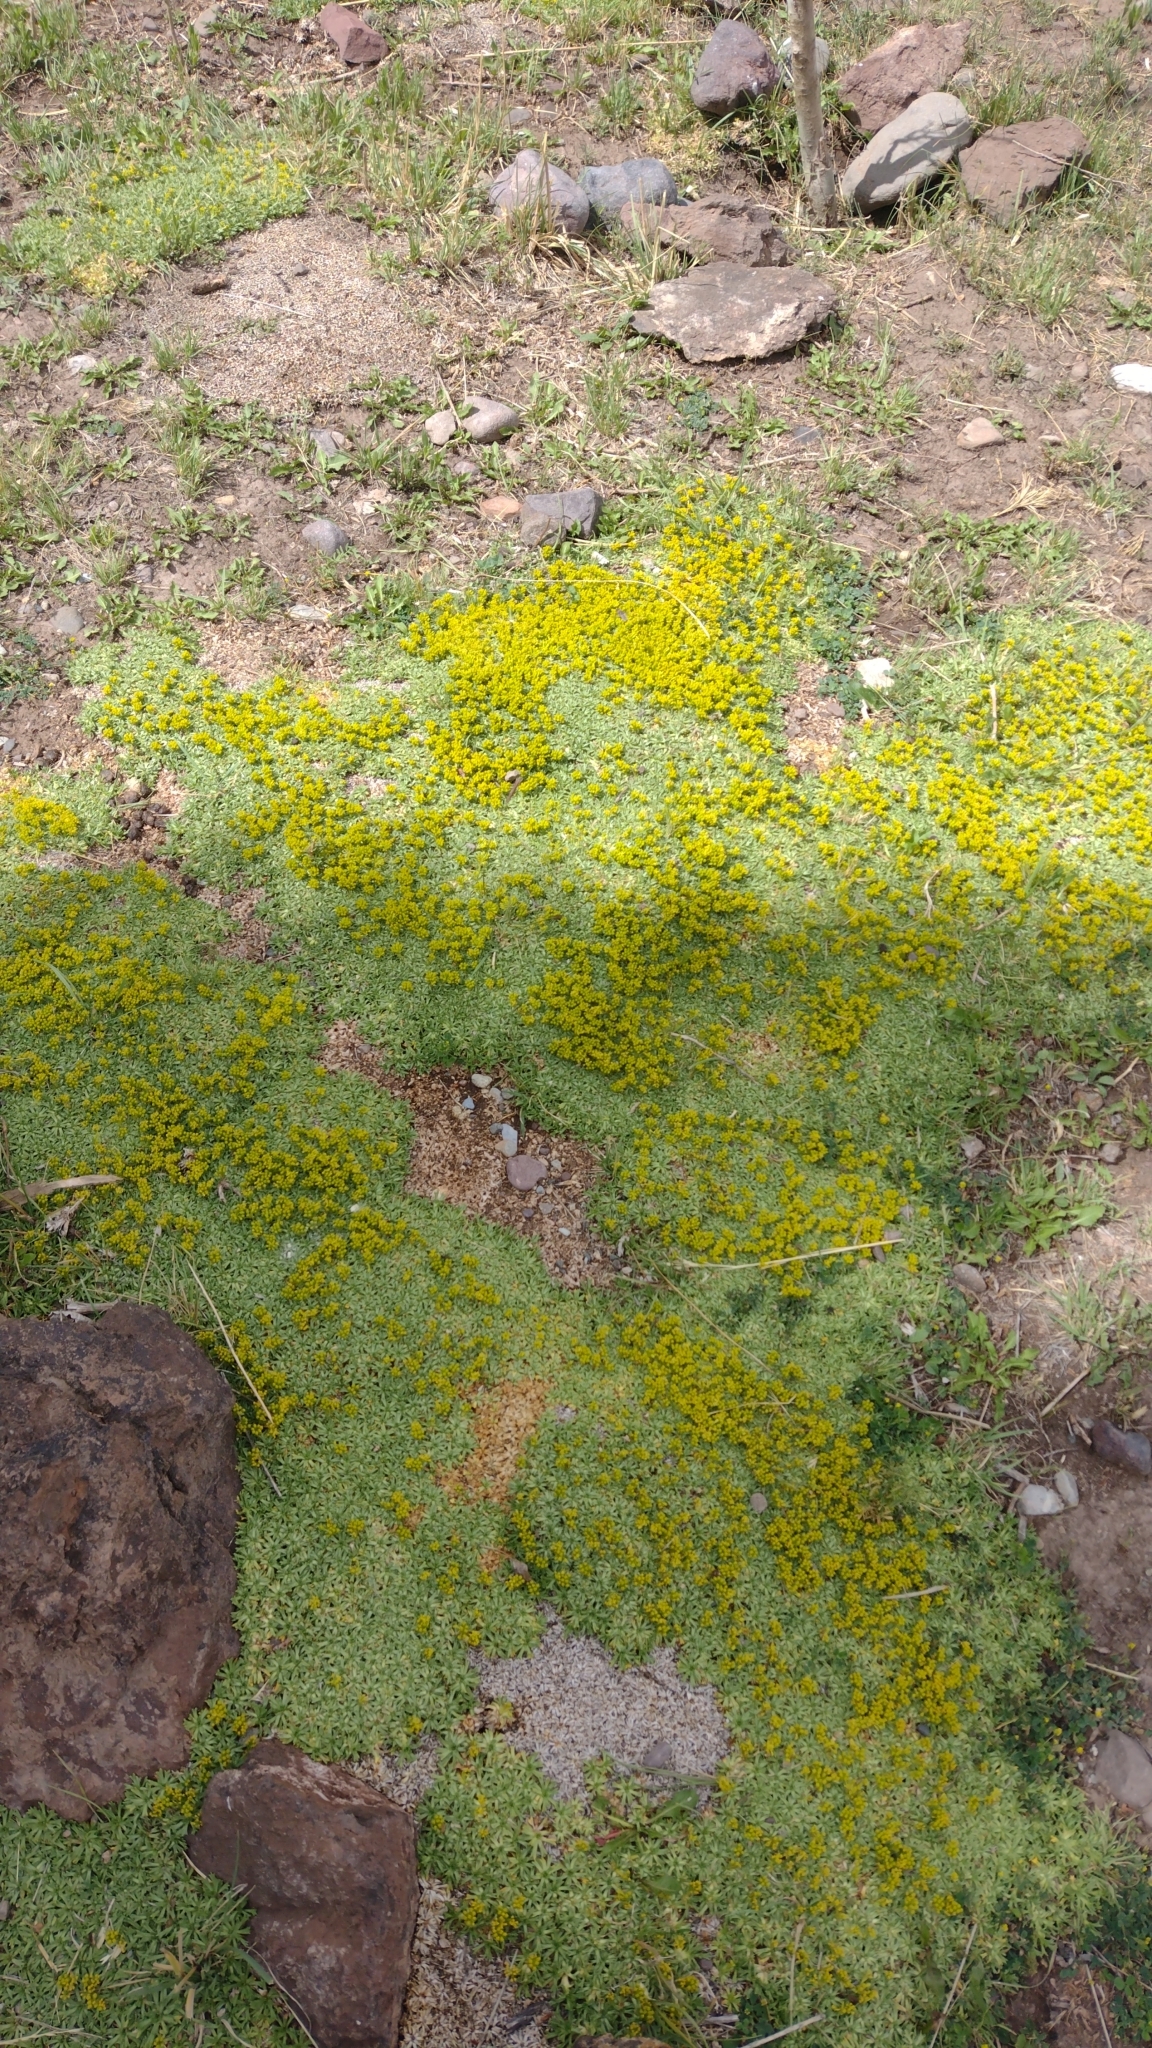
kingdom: Plantae
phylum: Tracheophyta
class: Magnoliopsida
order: Apiales
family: Apiaceae
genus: Azorella
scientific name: Azorella trifurcata
